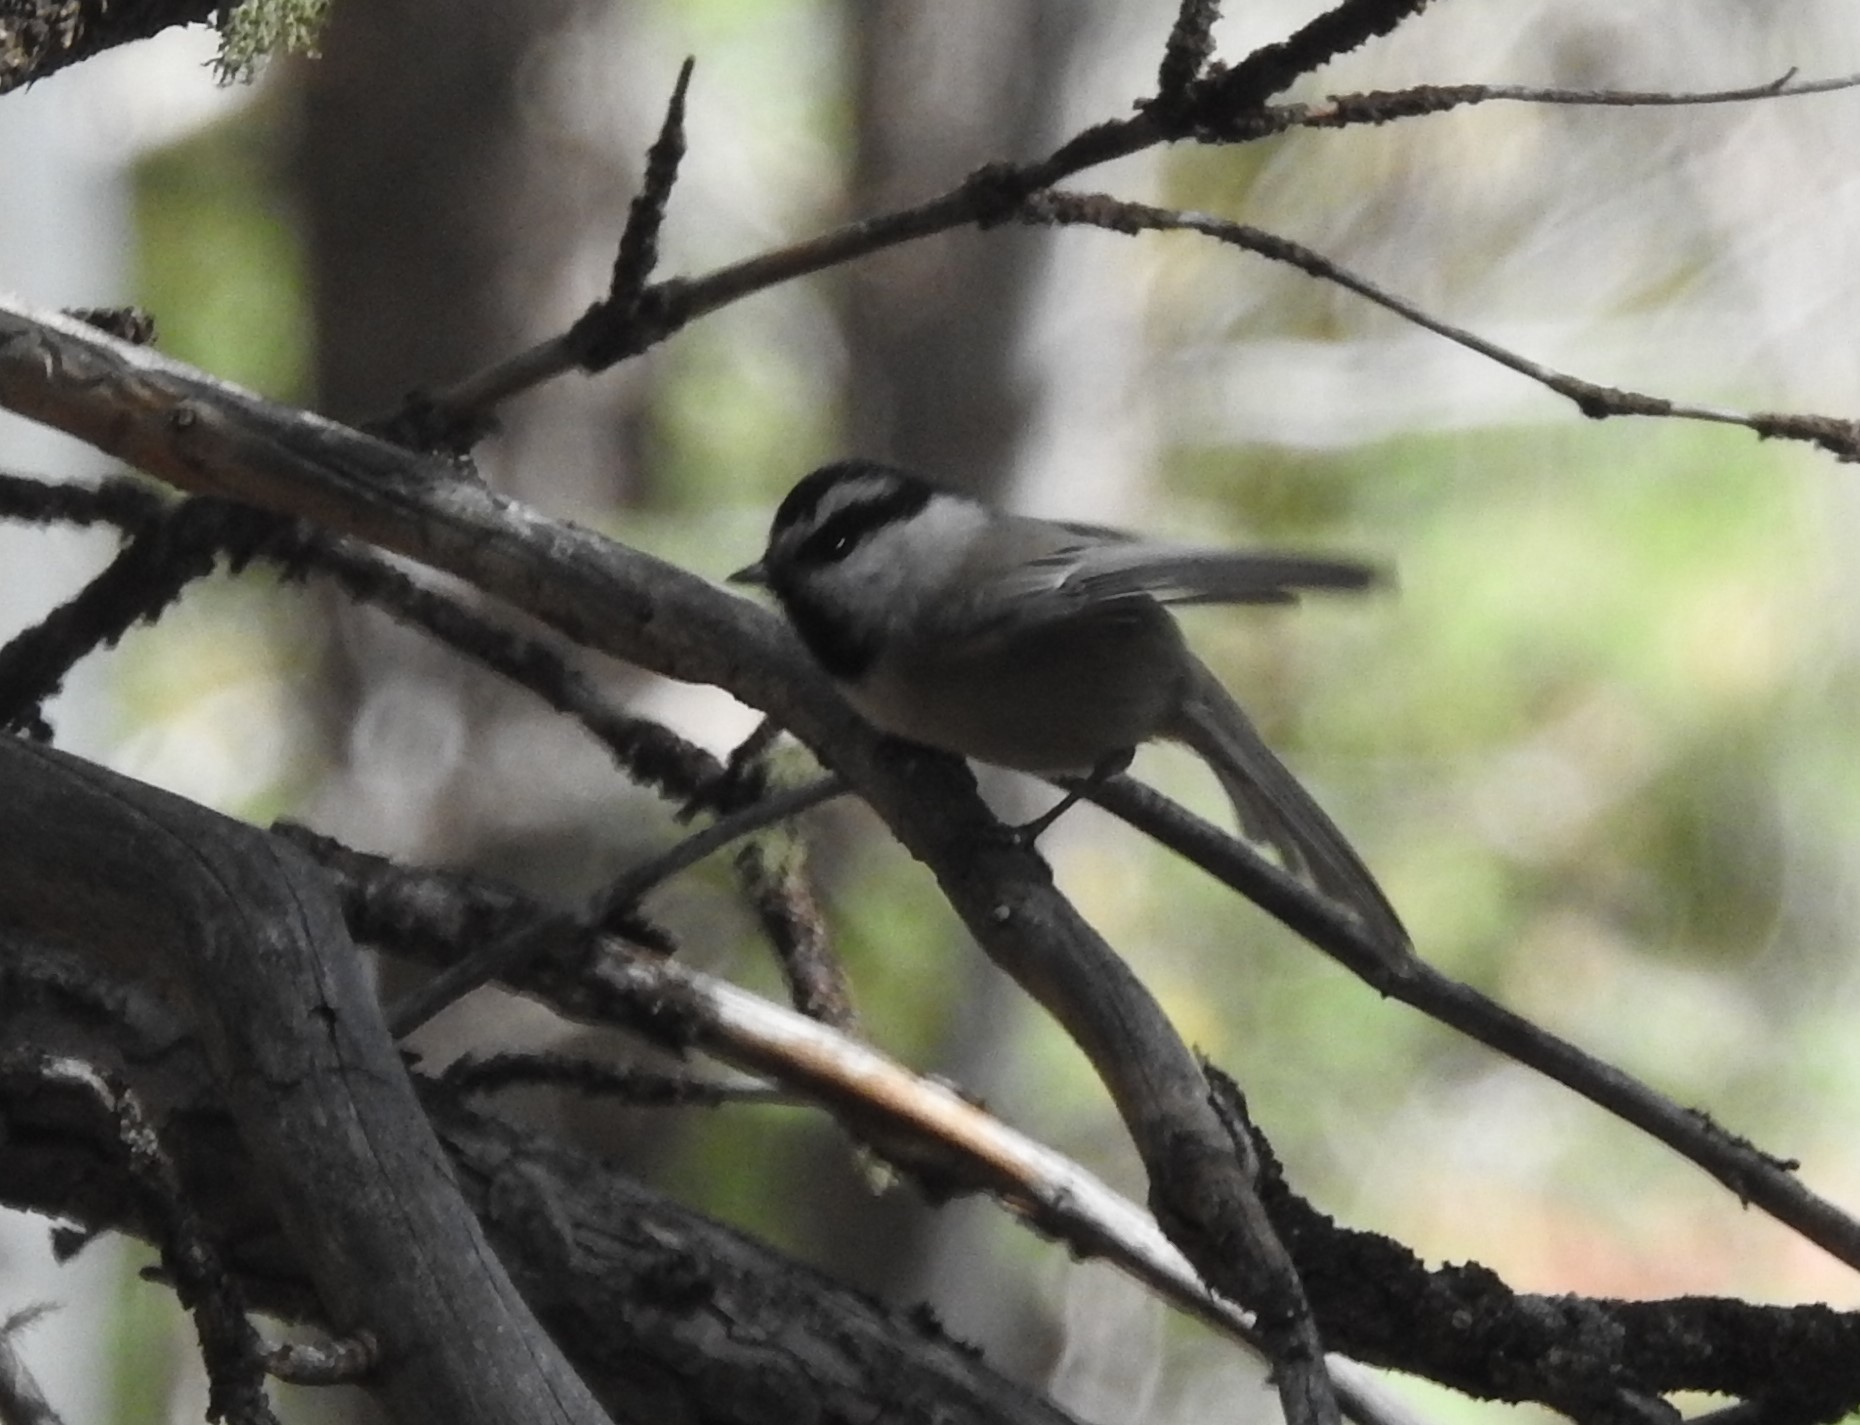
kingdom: Animalia
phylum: Chordata
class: Aves
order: Passeriformes
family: Paridae
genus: Poecile
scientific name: Poecile gambeli
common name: Mountain chickadee
